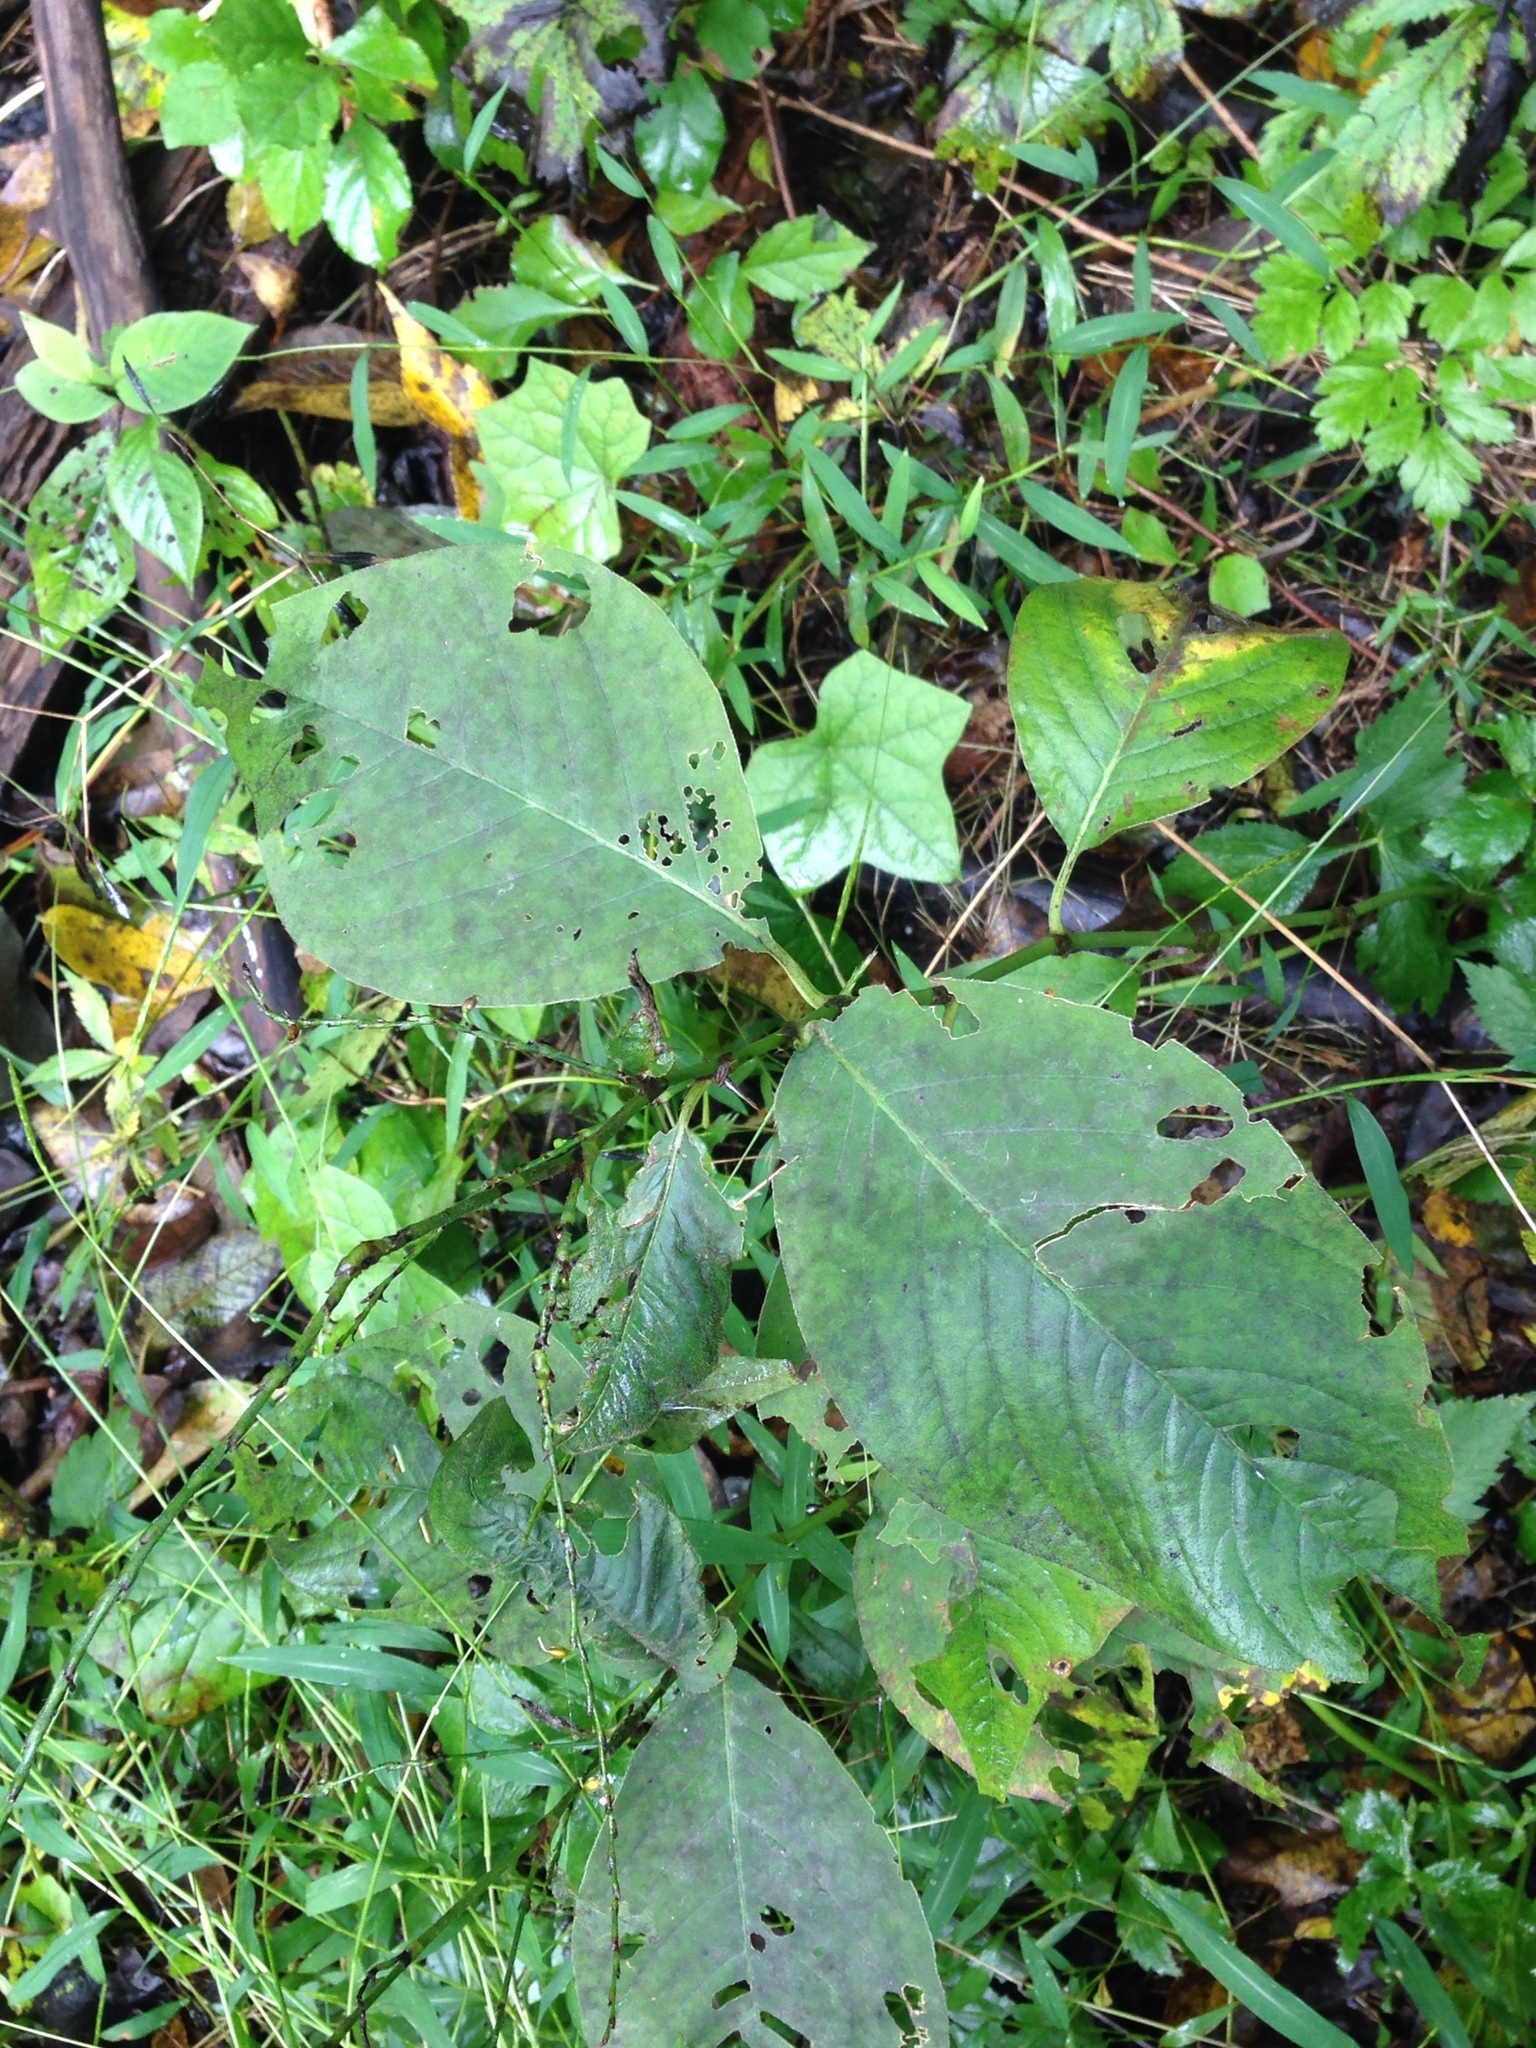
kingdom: Plantae
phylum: Tracheophyta
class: Magnoliopsida
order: Caryophyllales
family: Polygonaceae
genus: Persicaria
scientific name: Persicaria virginiana
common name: Jumpseed
